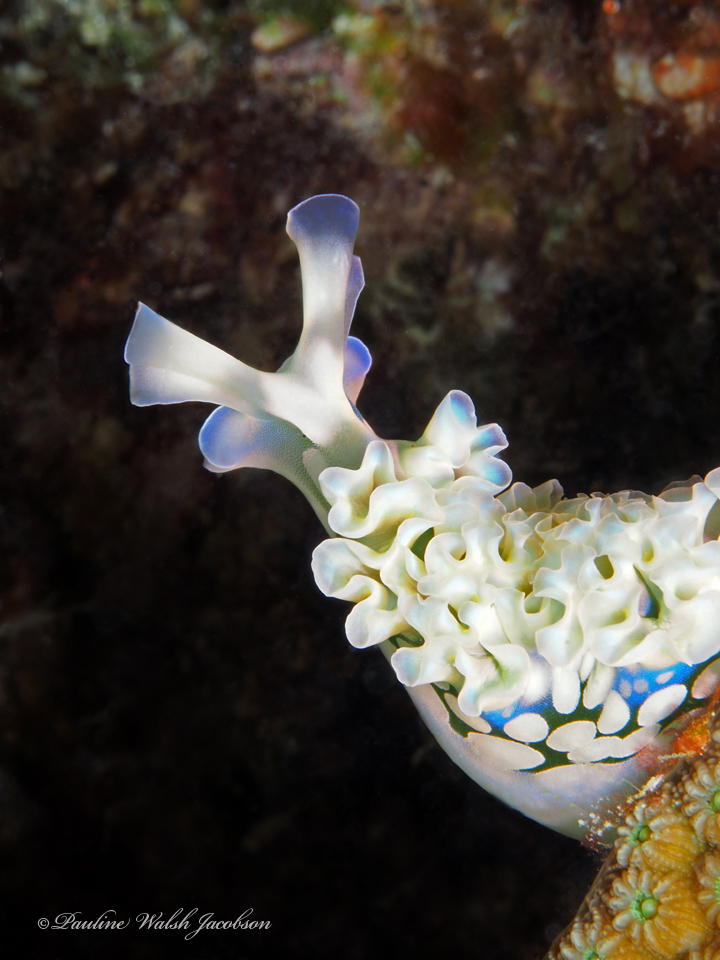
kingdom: Animalia
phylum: Mollusca
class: Gastropoda
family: Plakobranchidae
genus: Elysia
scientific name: Elysia crispata
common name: Lettuce slug
